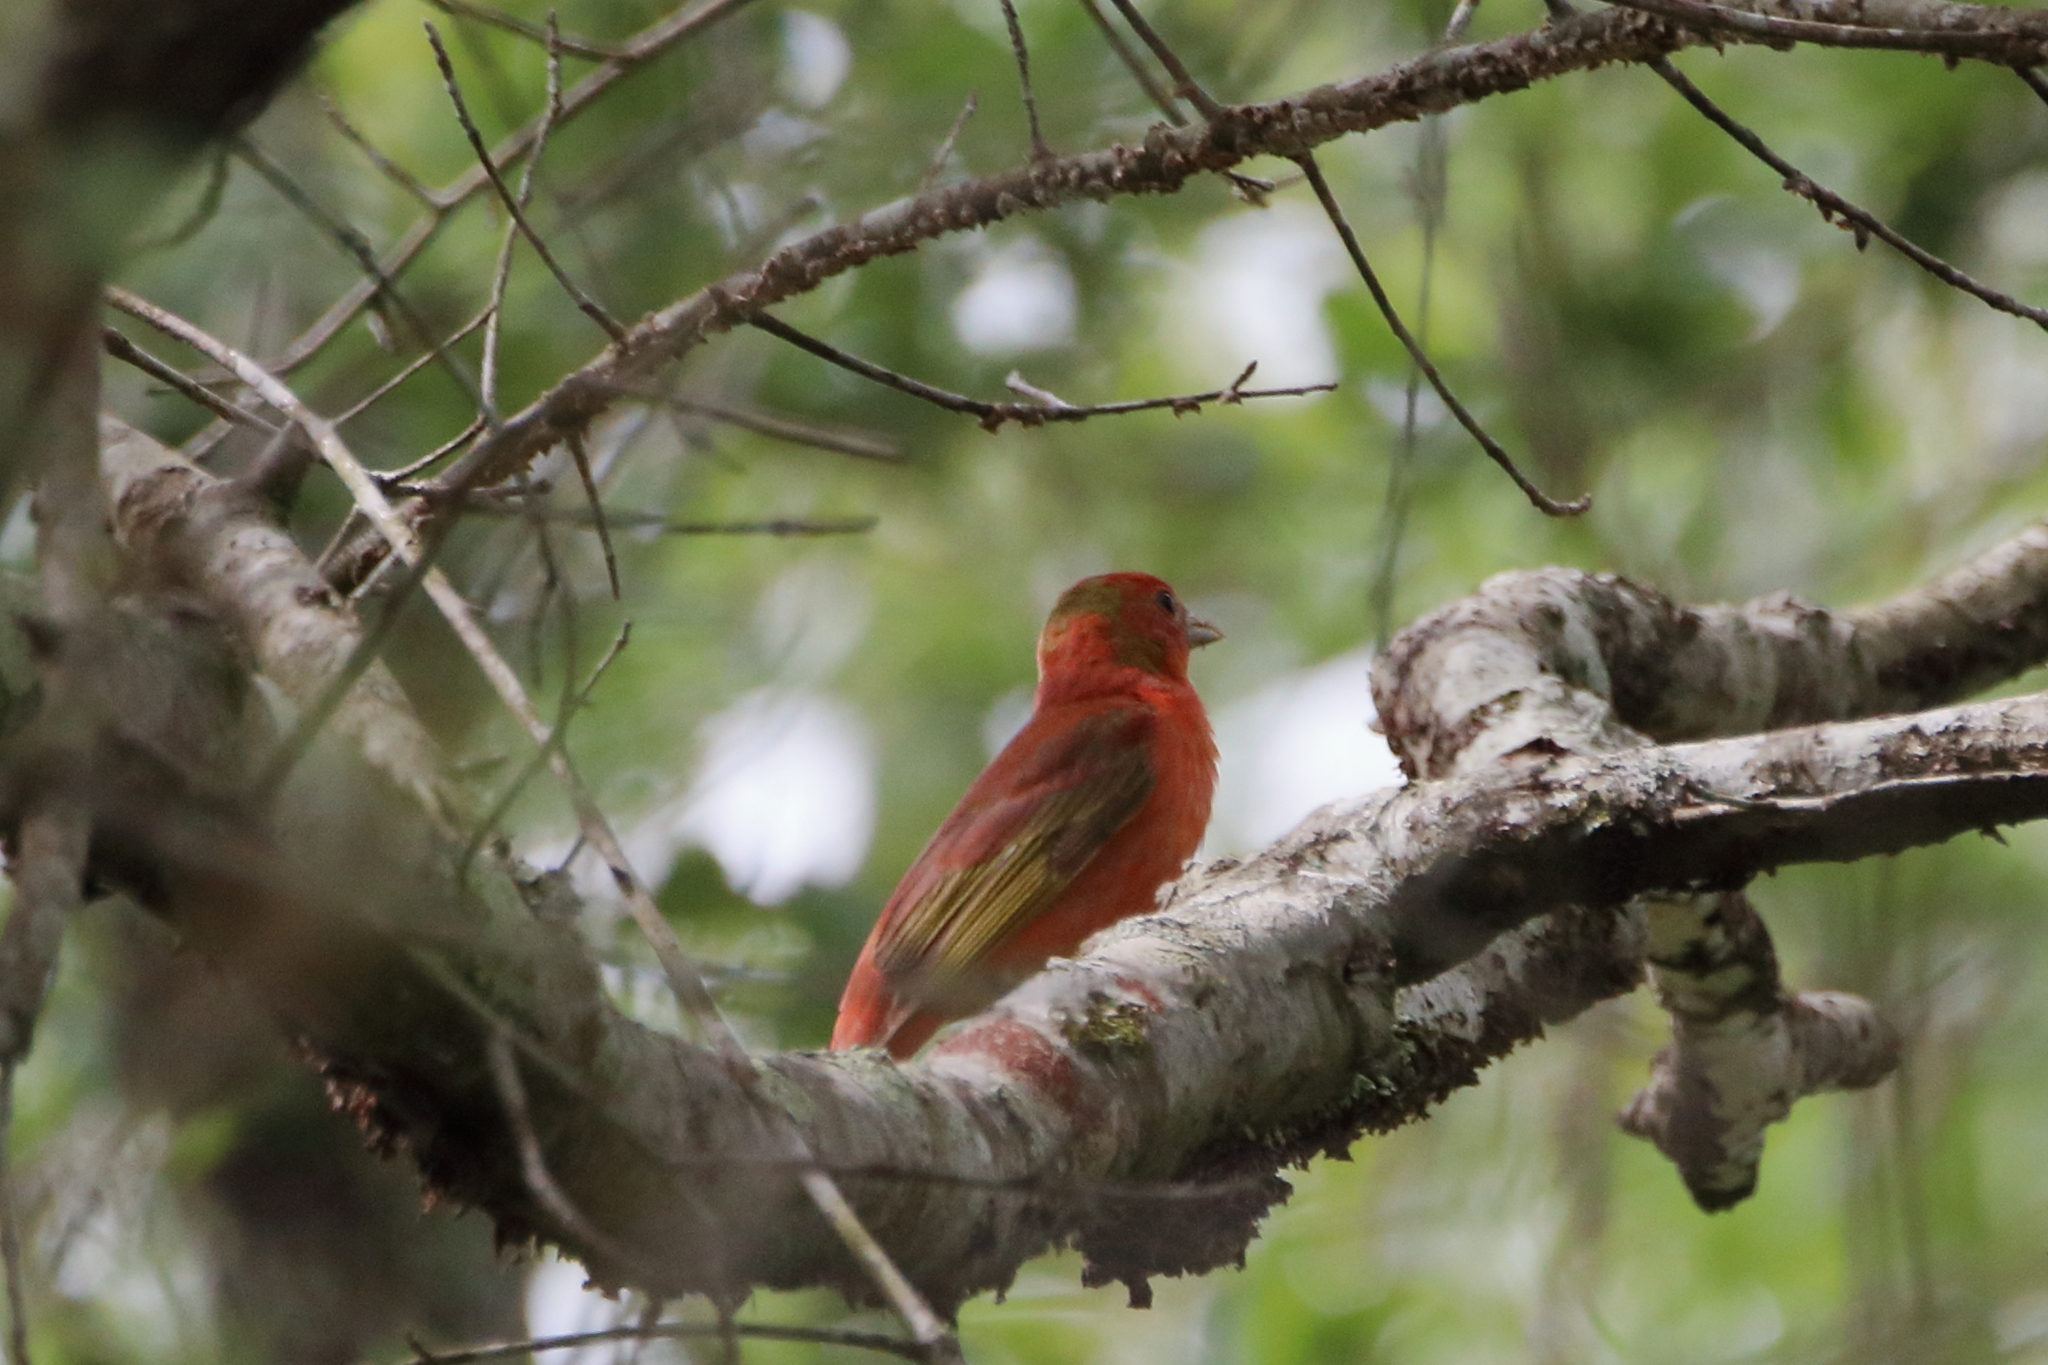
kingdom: Animalia
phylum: Chordata
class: Aves
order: Passeriformes
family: Cardinalidae
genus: Piranga
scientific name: Piranga rubra
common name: Summer tanager
